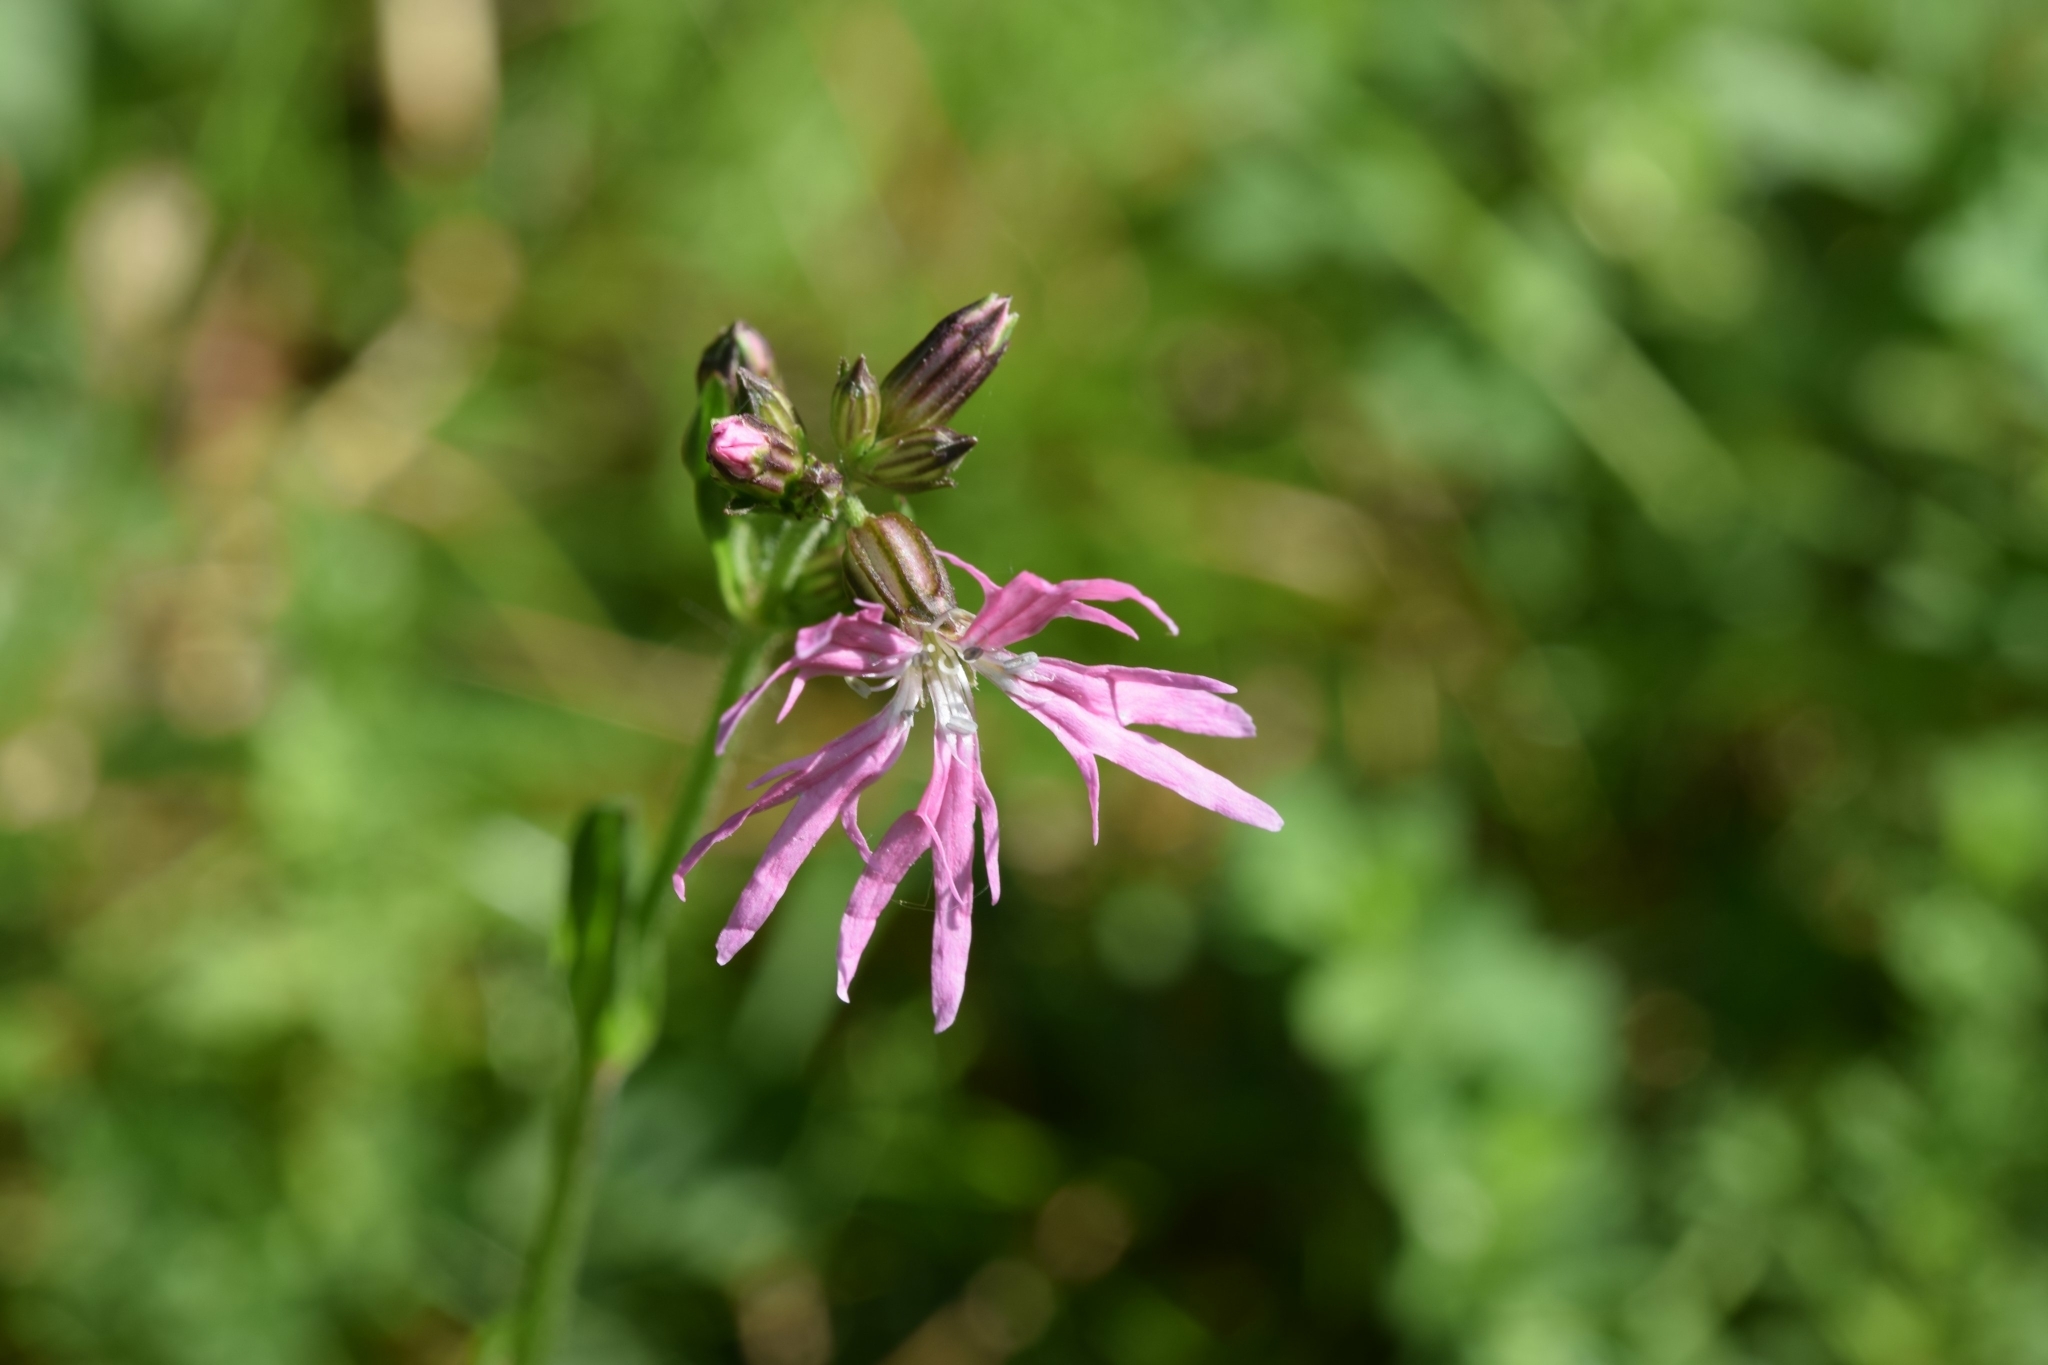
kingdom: Plantae
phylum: Tracheophyta
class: Magnoliopsida
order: Caryophyllales
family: Caryophyllaceae
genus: Silene
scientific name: Silene flos-cuculi
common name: Ragged-robin
